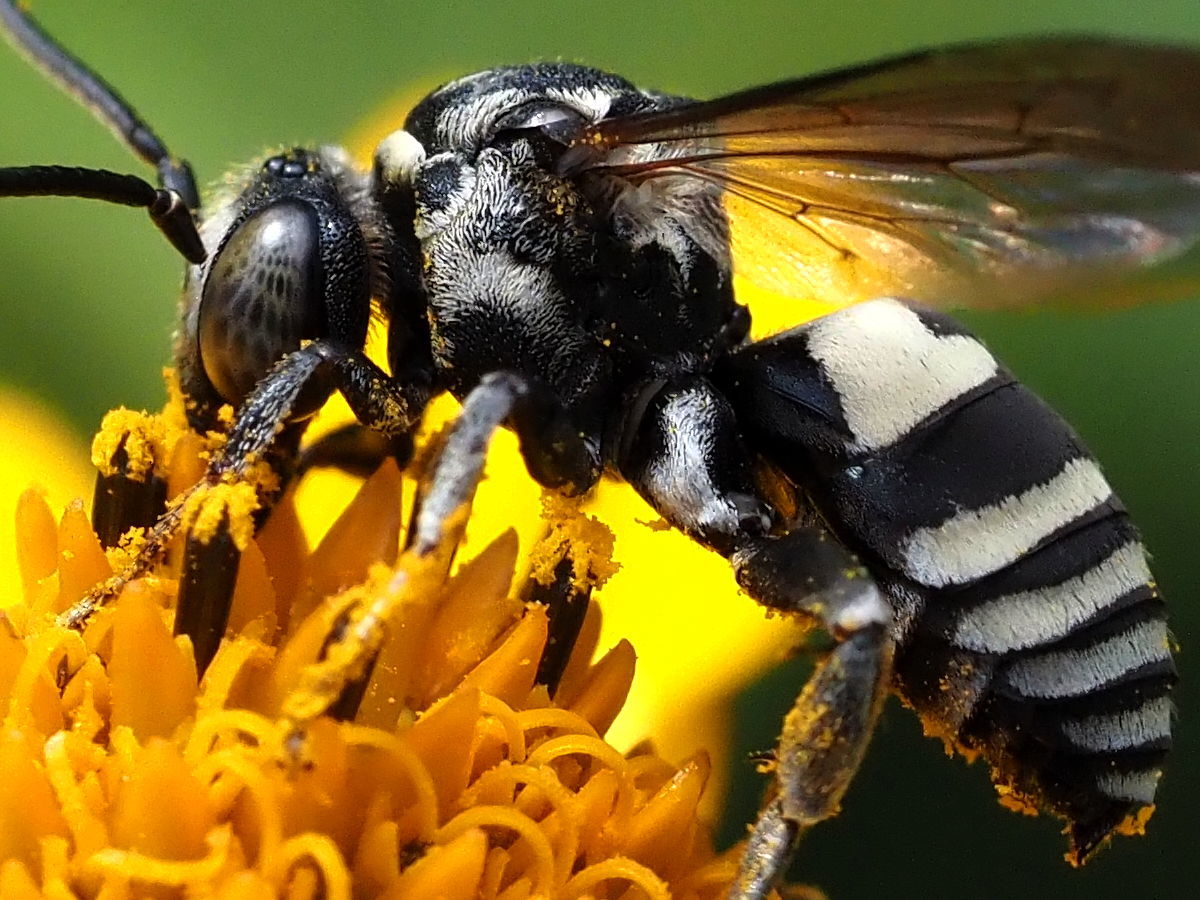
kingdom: Animalia
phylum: Arthropoda
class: Insecta
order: Hymenoptera
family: Apidae
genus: Triepeolus
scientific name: Triepeolus lunatus
